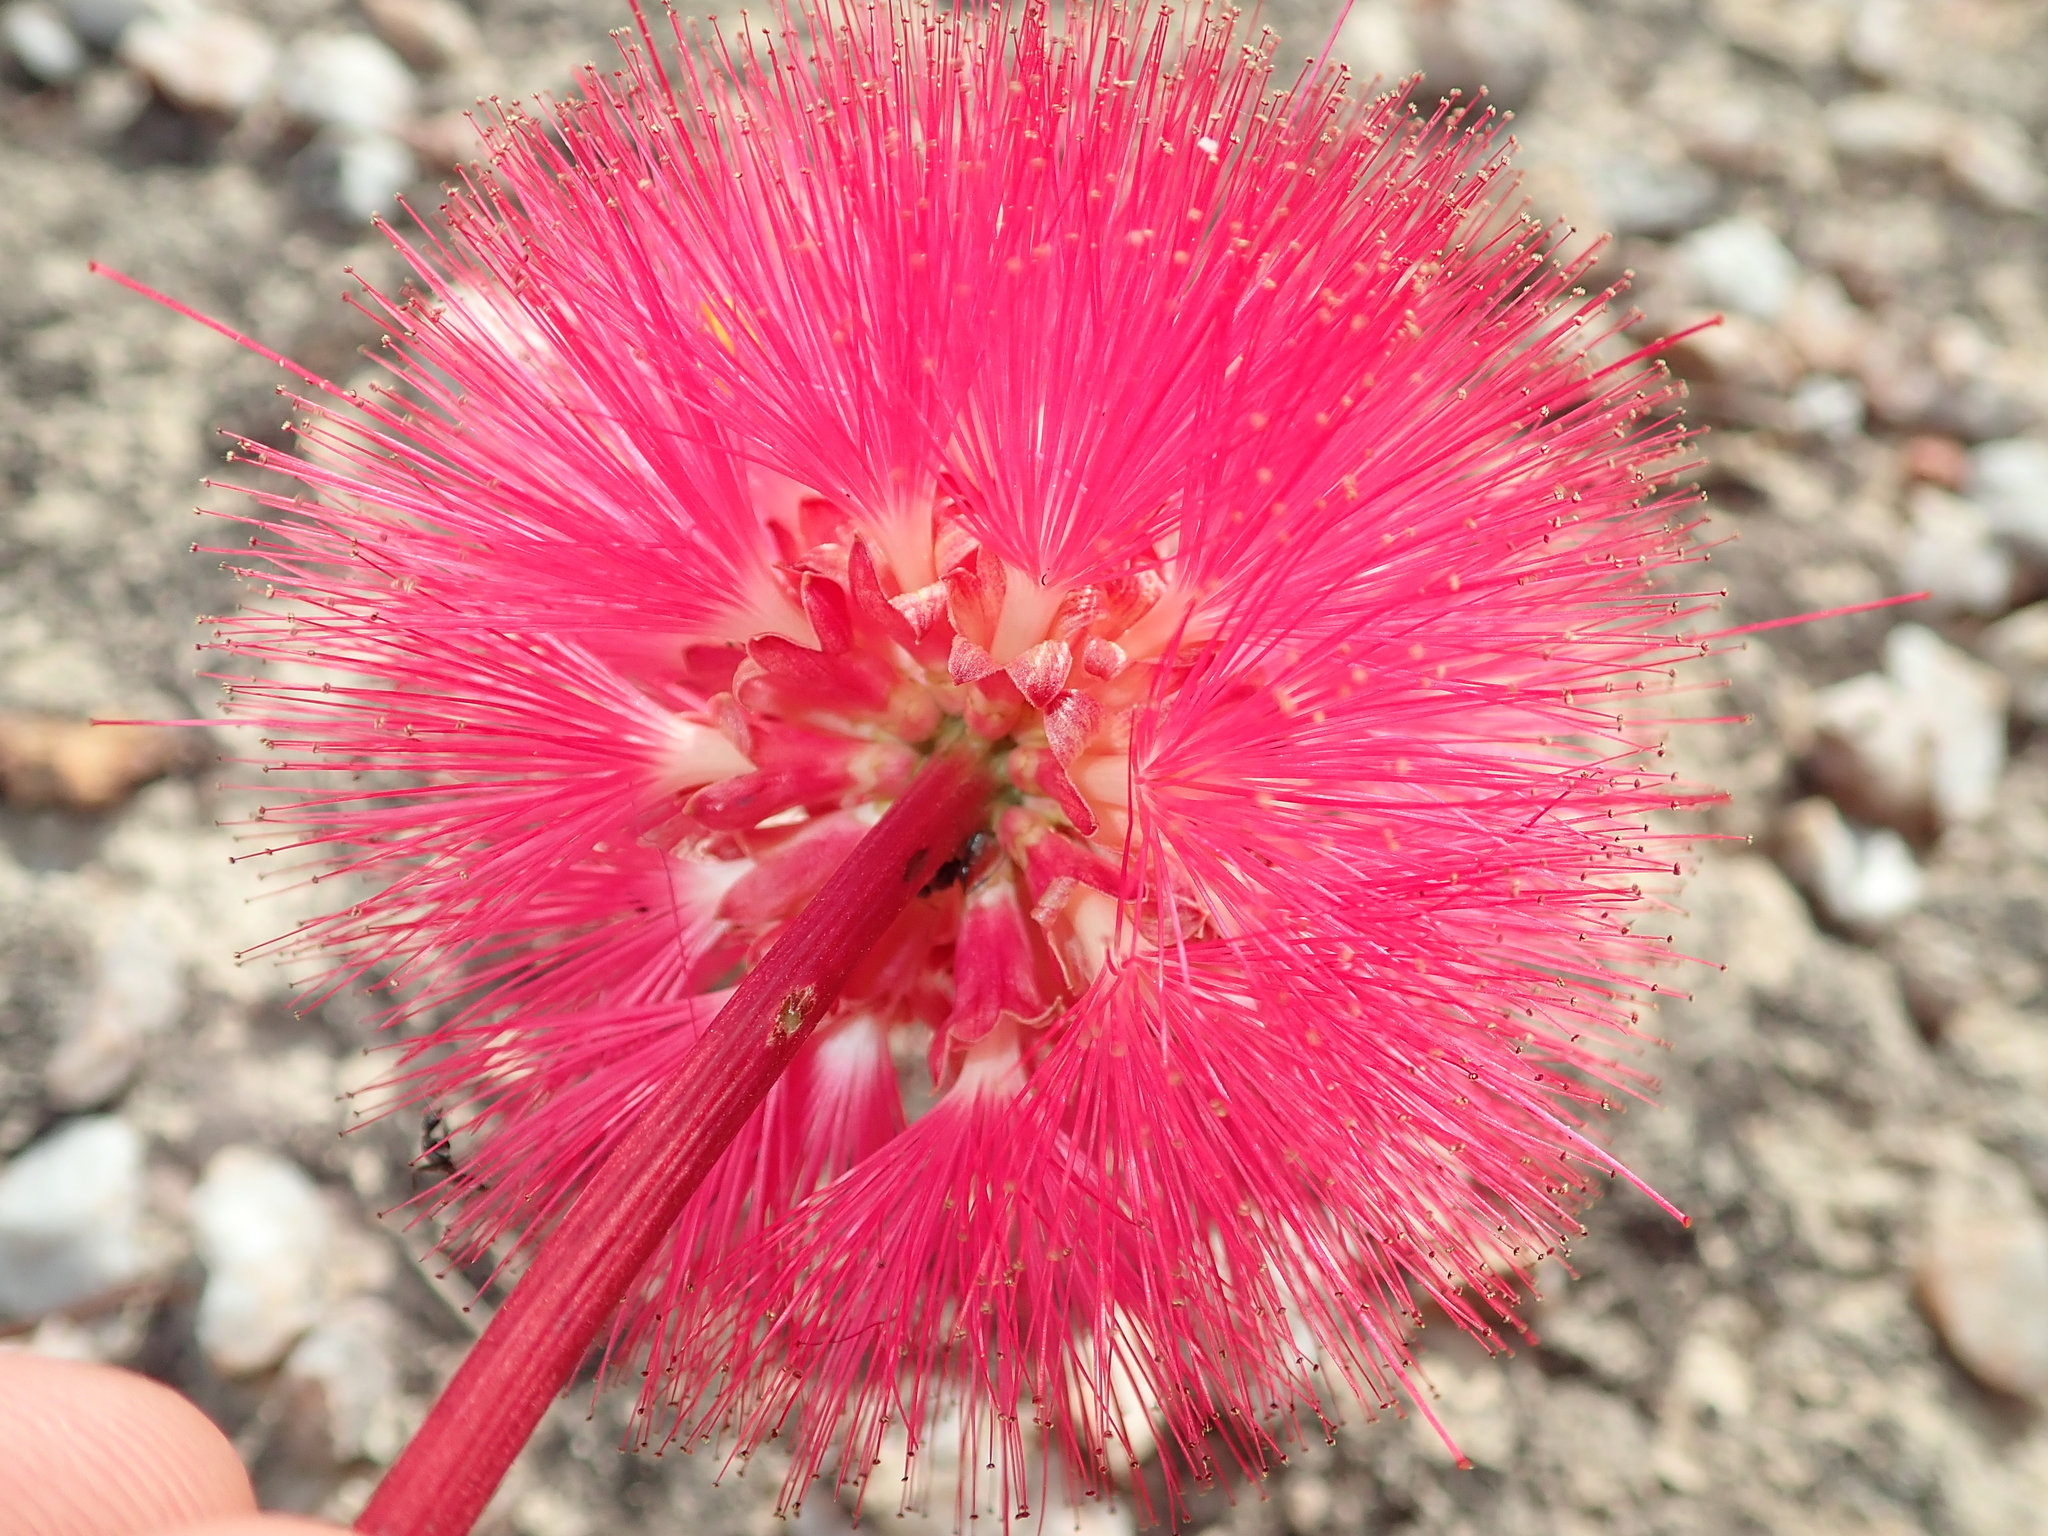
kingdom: Plantae
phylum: Tracheophyta
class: Magnoliopsida
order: Fabales
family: Fabaceae
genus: Calliandra
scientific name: Calliandra longipes
